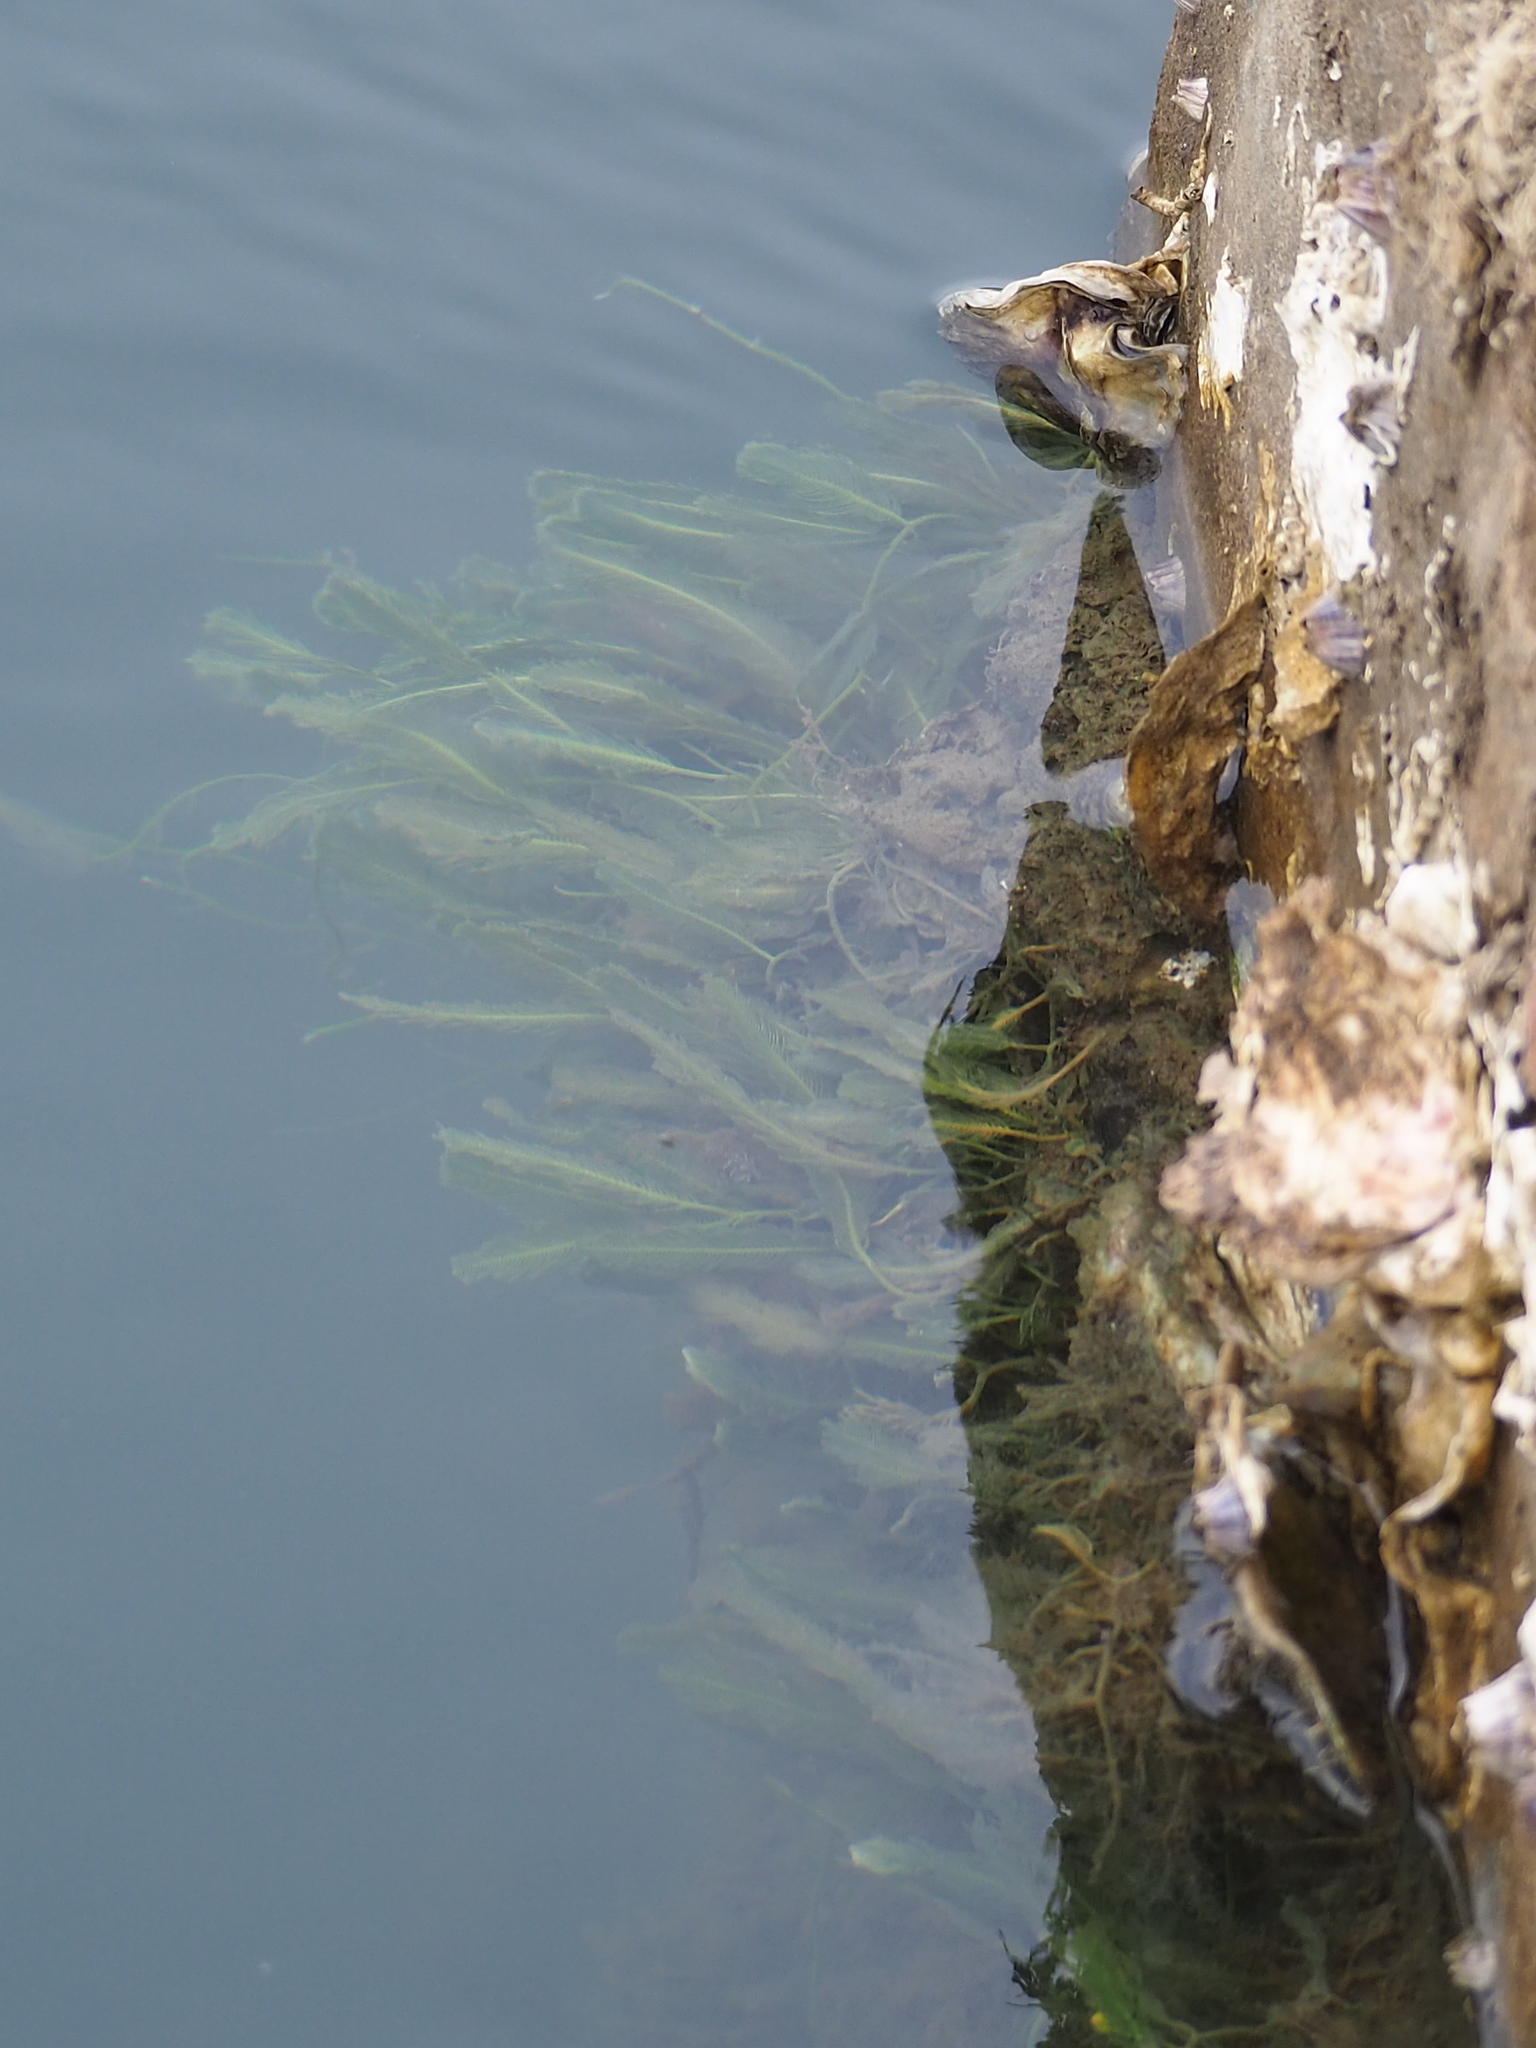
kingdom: Plantae
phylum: Chlorophyta
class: Ulvophyceae
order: Bryopsidales
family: Caulerpaceae
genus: Caulerpa
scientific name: Caulerpa sertularioides
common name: Green feather algae
